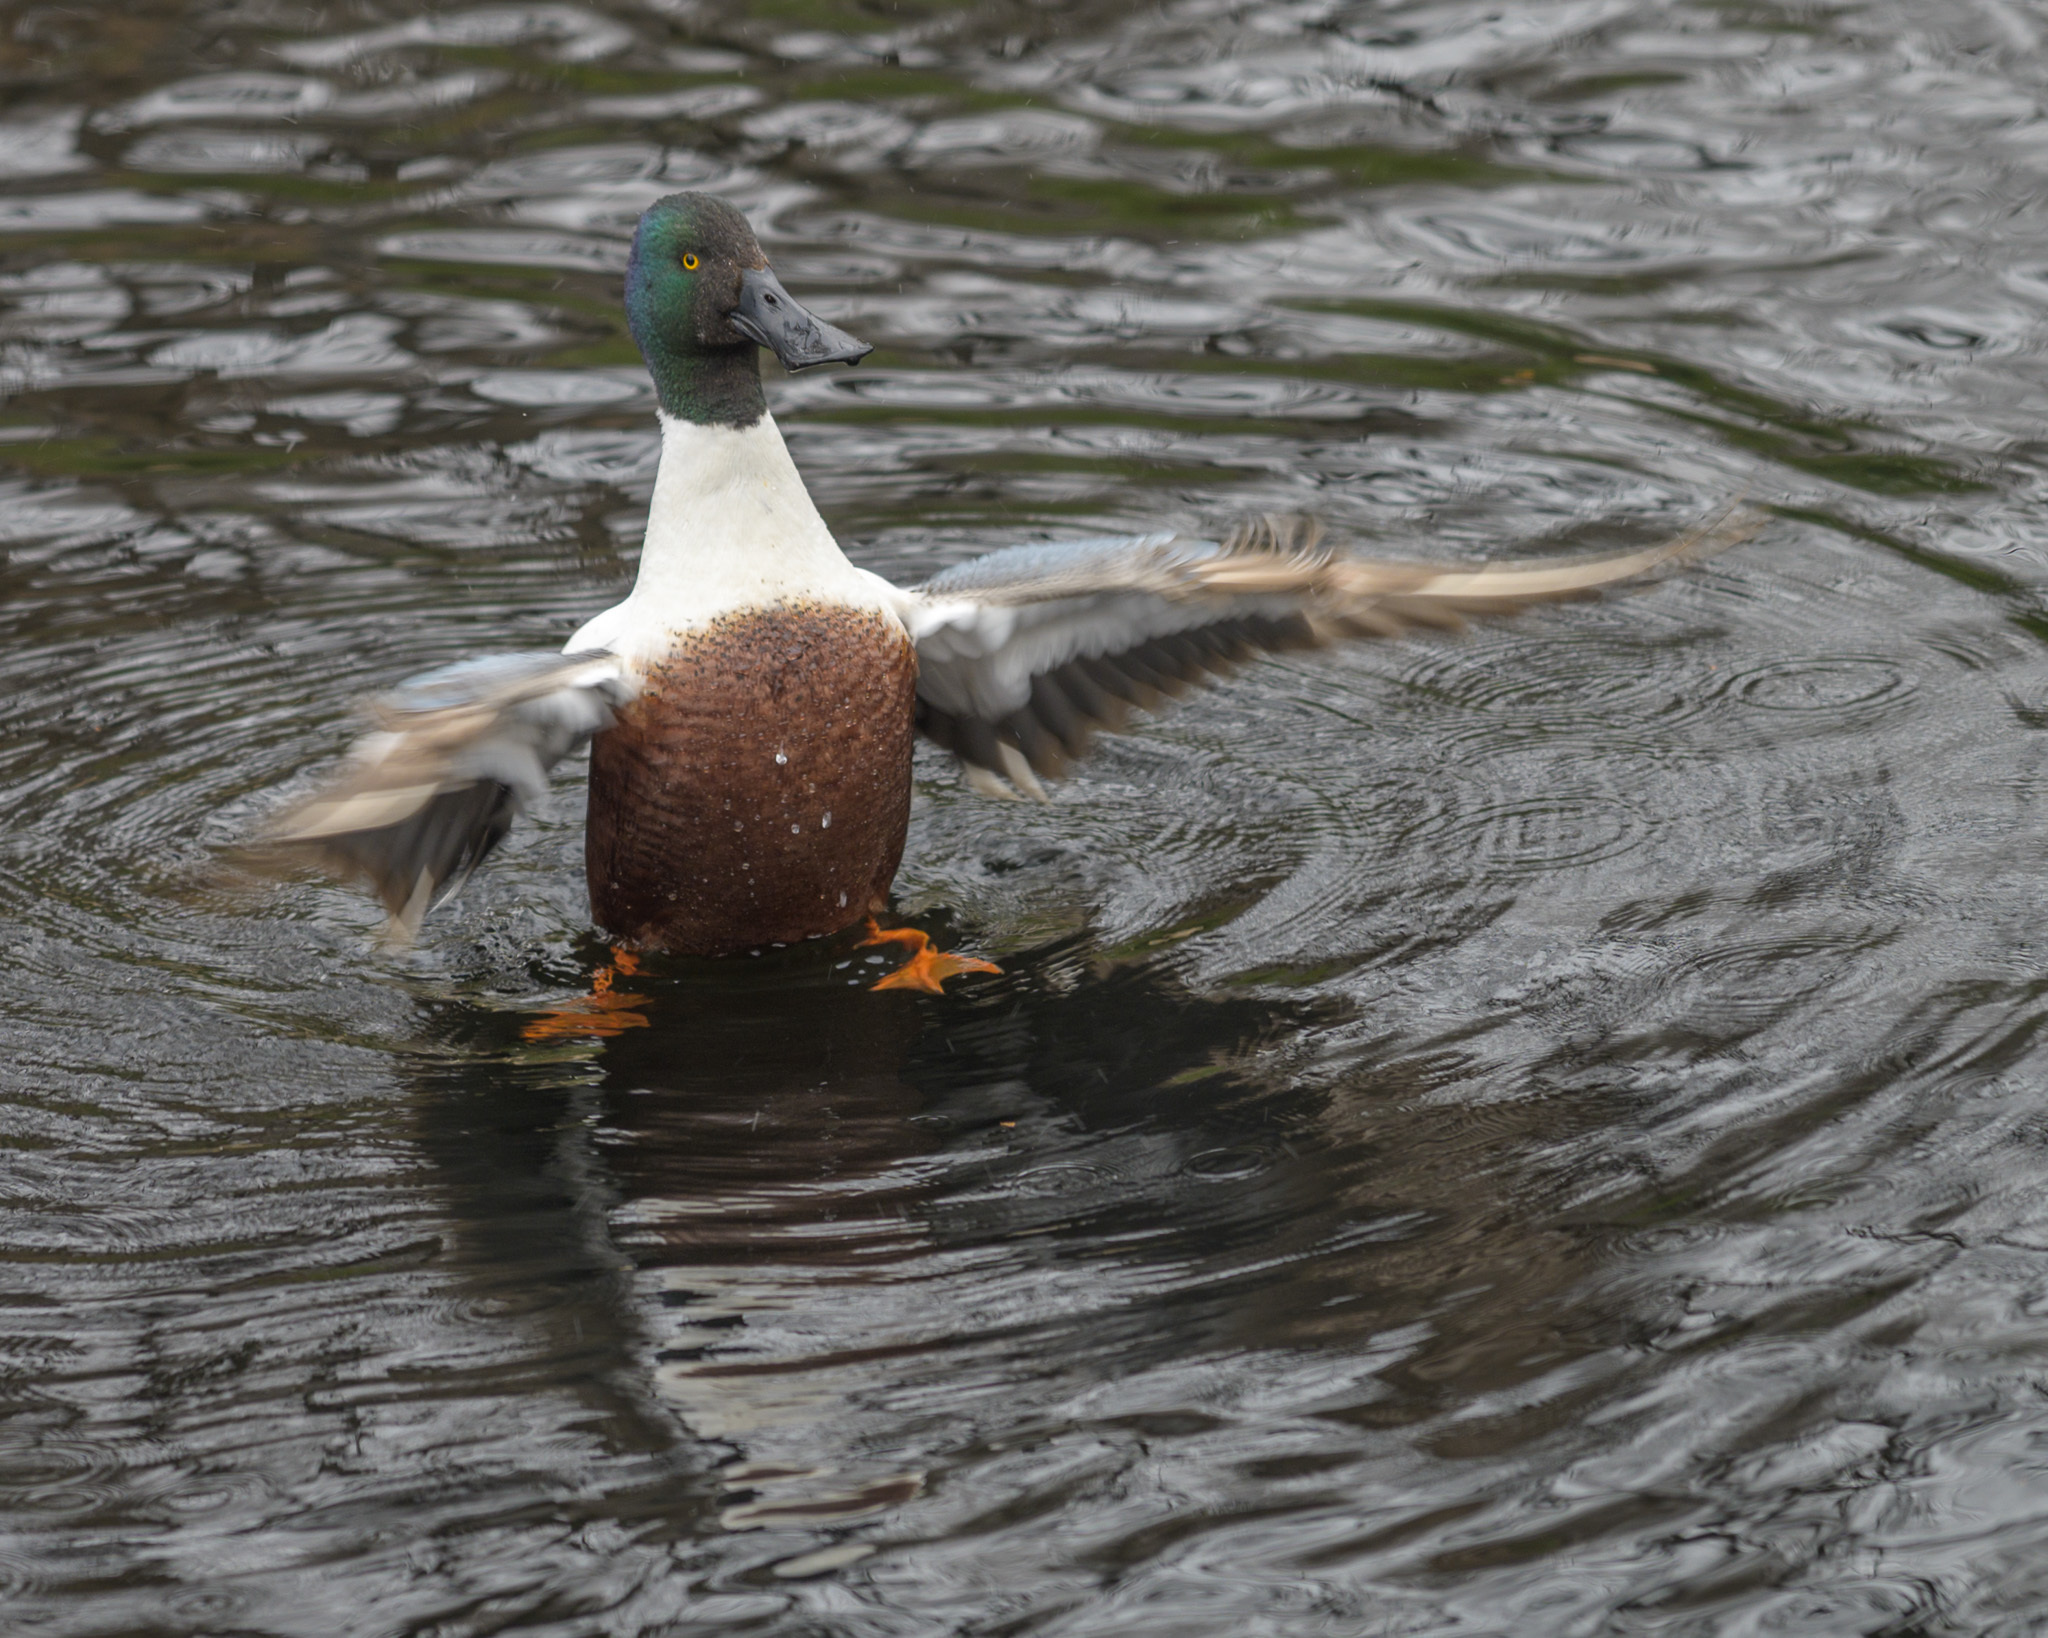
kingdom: Animalia
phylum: Chordata
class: Aves
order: Anseriformes
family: Anatidae
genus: Spatula
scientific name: Spatula clypeata
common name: Northern shoveler
